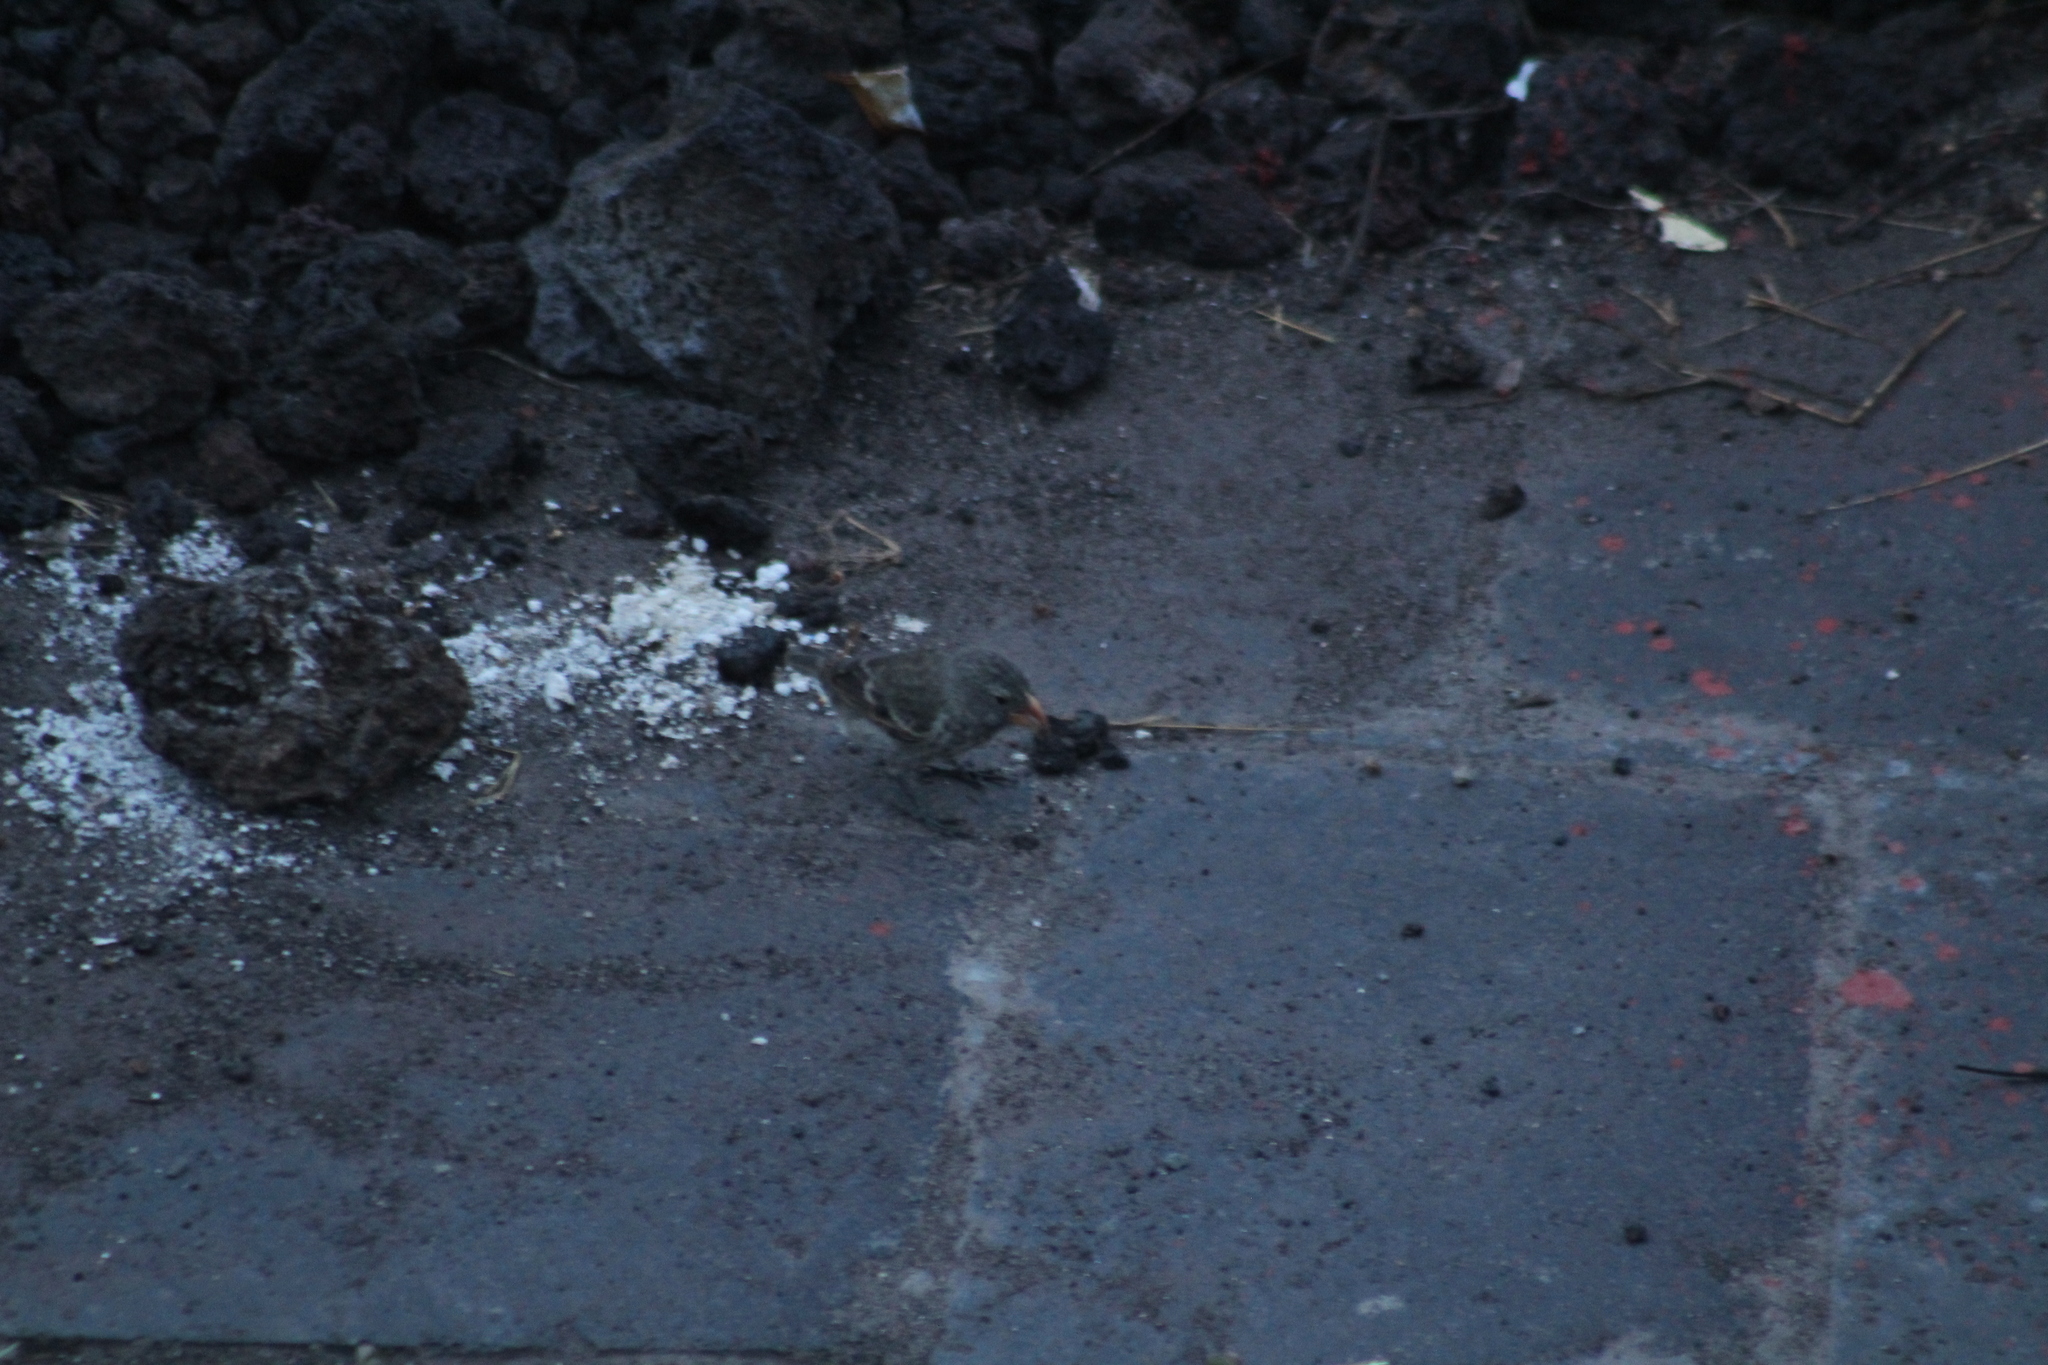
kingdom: Animalia
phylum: Chordata
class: Aves
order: Passeriformes
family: Thraupidae
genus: Geospiza
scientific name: Geospiza fortis
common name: Medium ground finch
